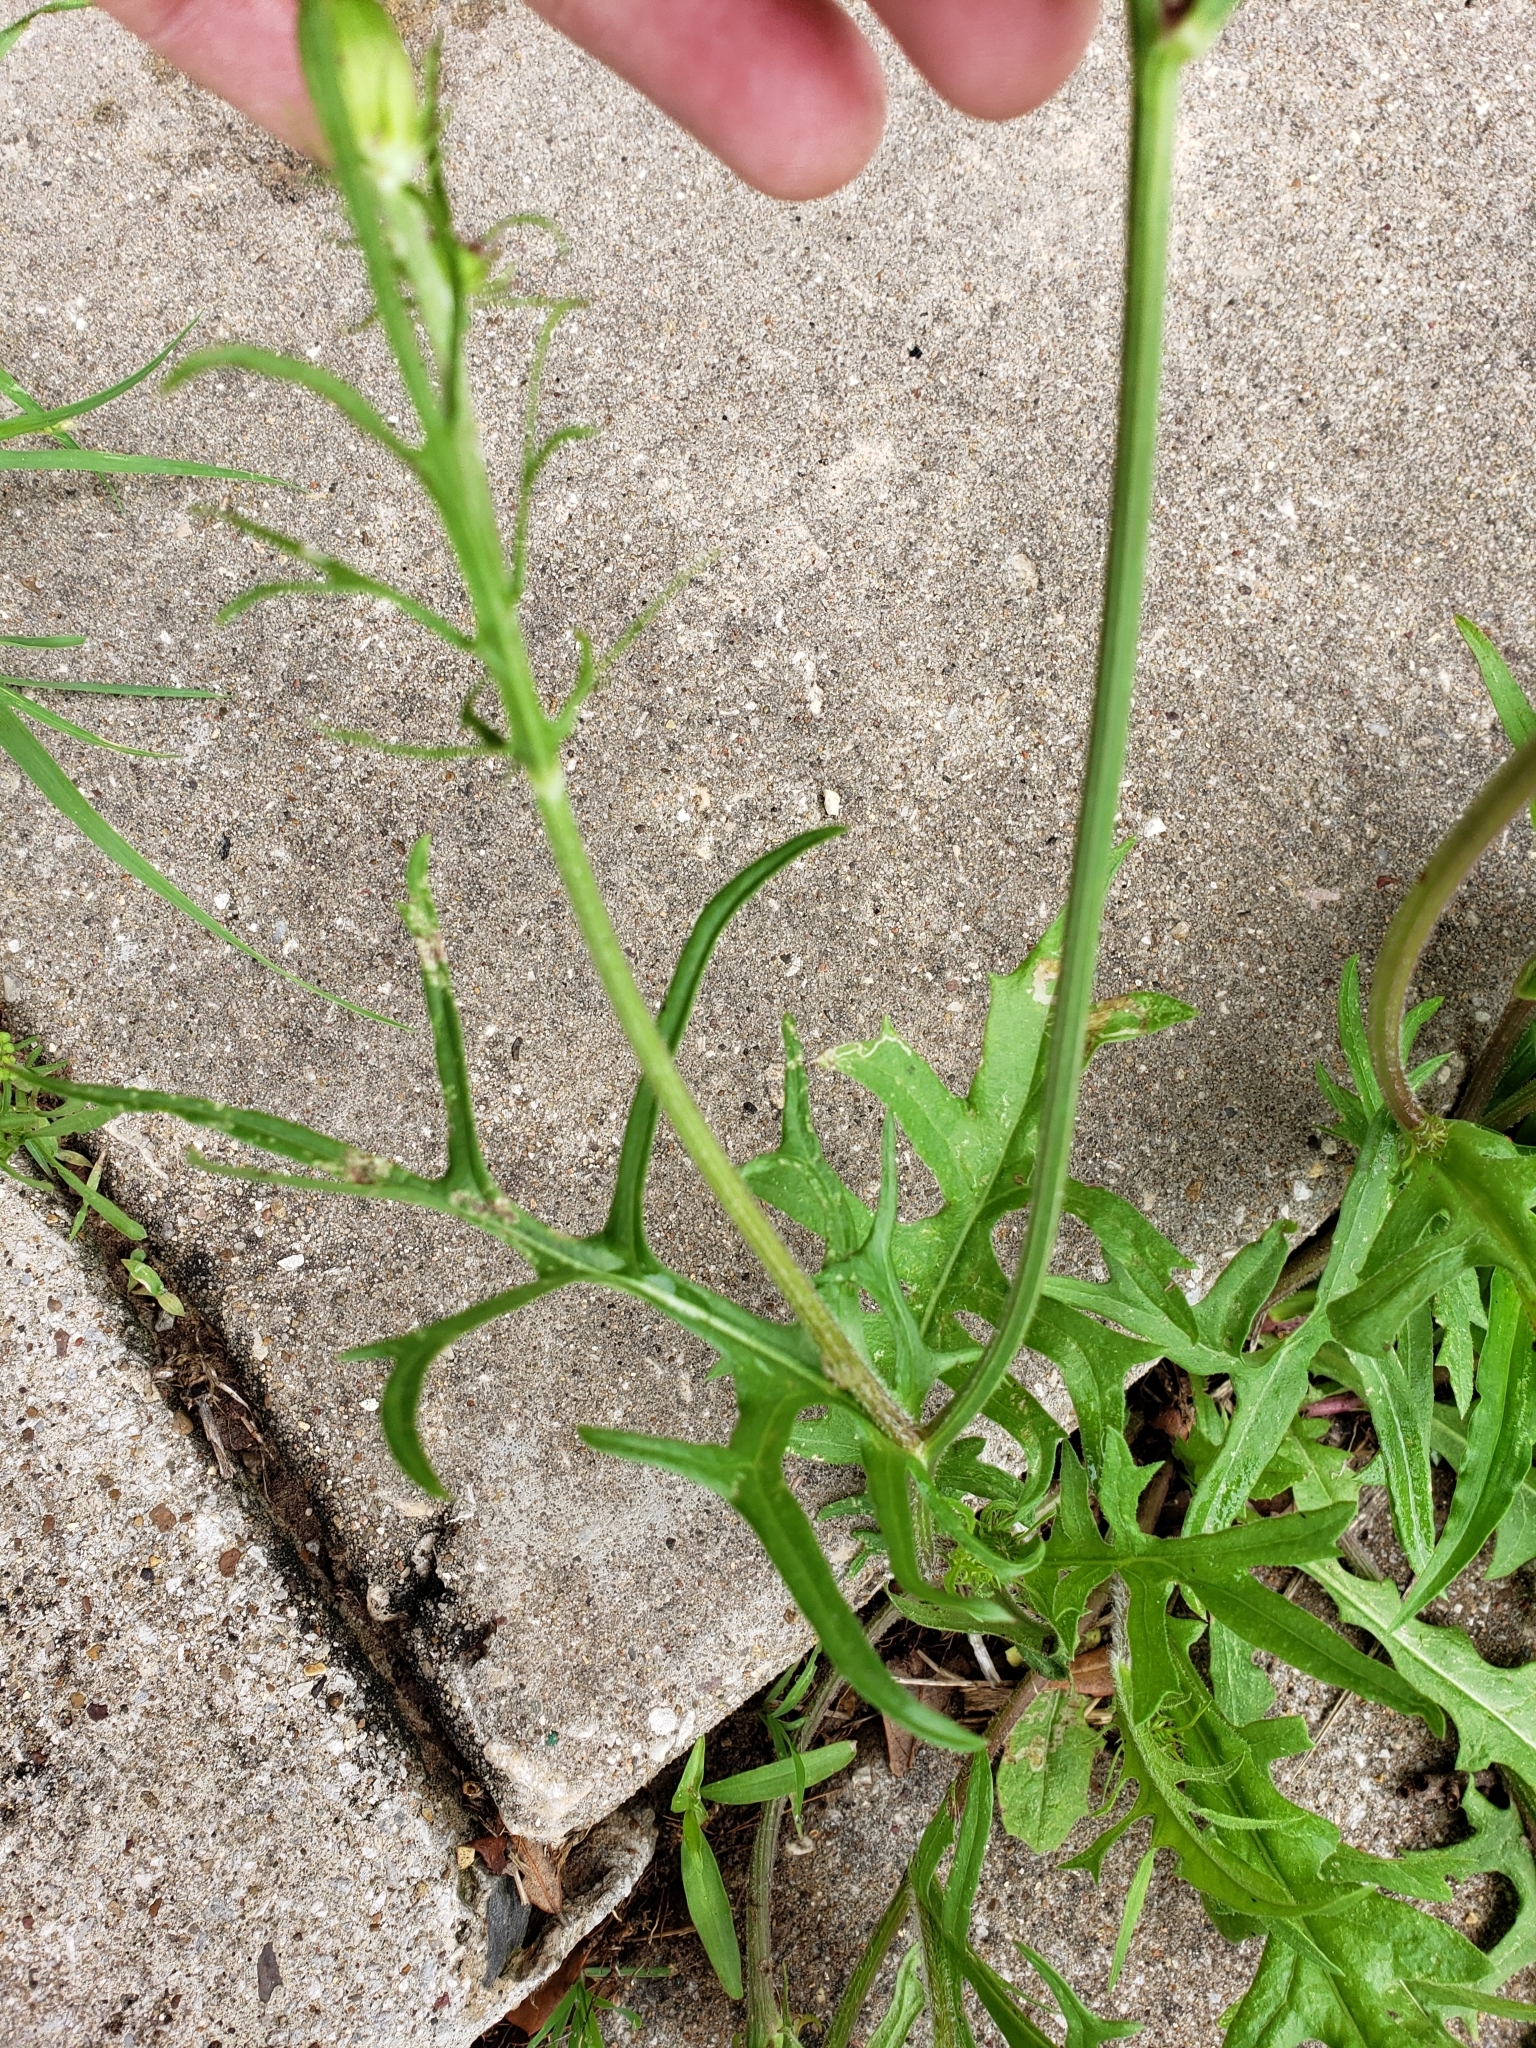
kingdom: Plantae
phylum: Tracheophyta
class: Magnoliopsida
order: Asterales
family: Asteraceae
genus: Pyrrhopappus
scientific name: Pyrrhopappus pauciflorus
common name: Texas false dandelion
